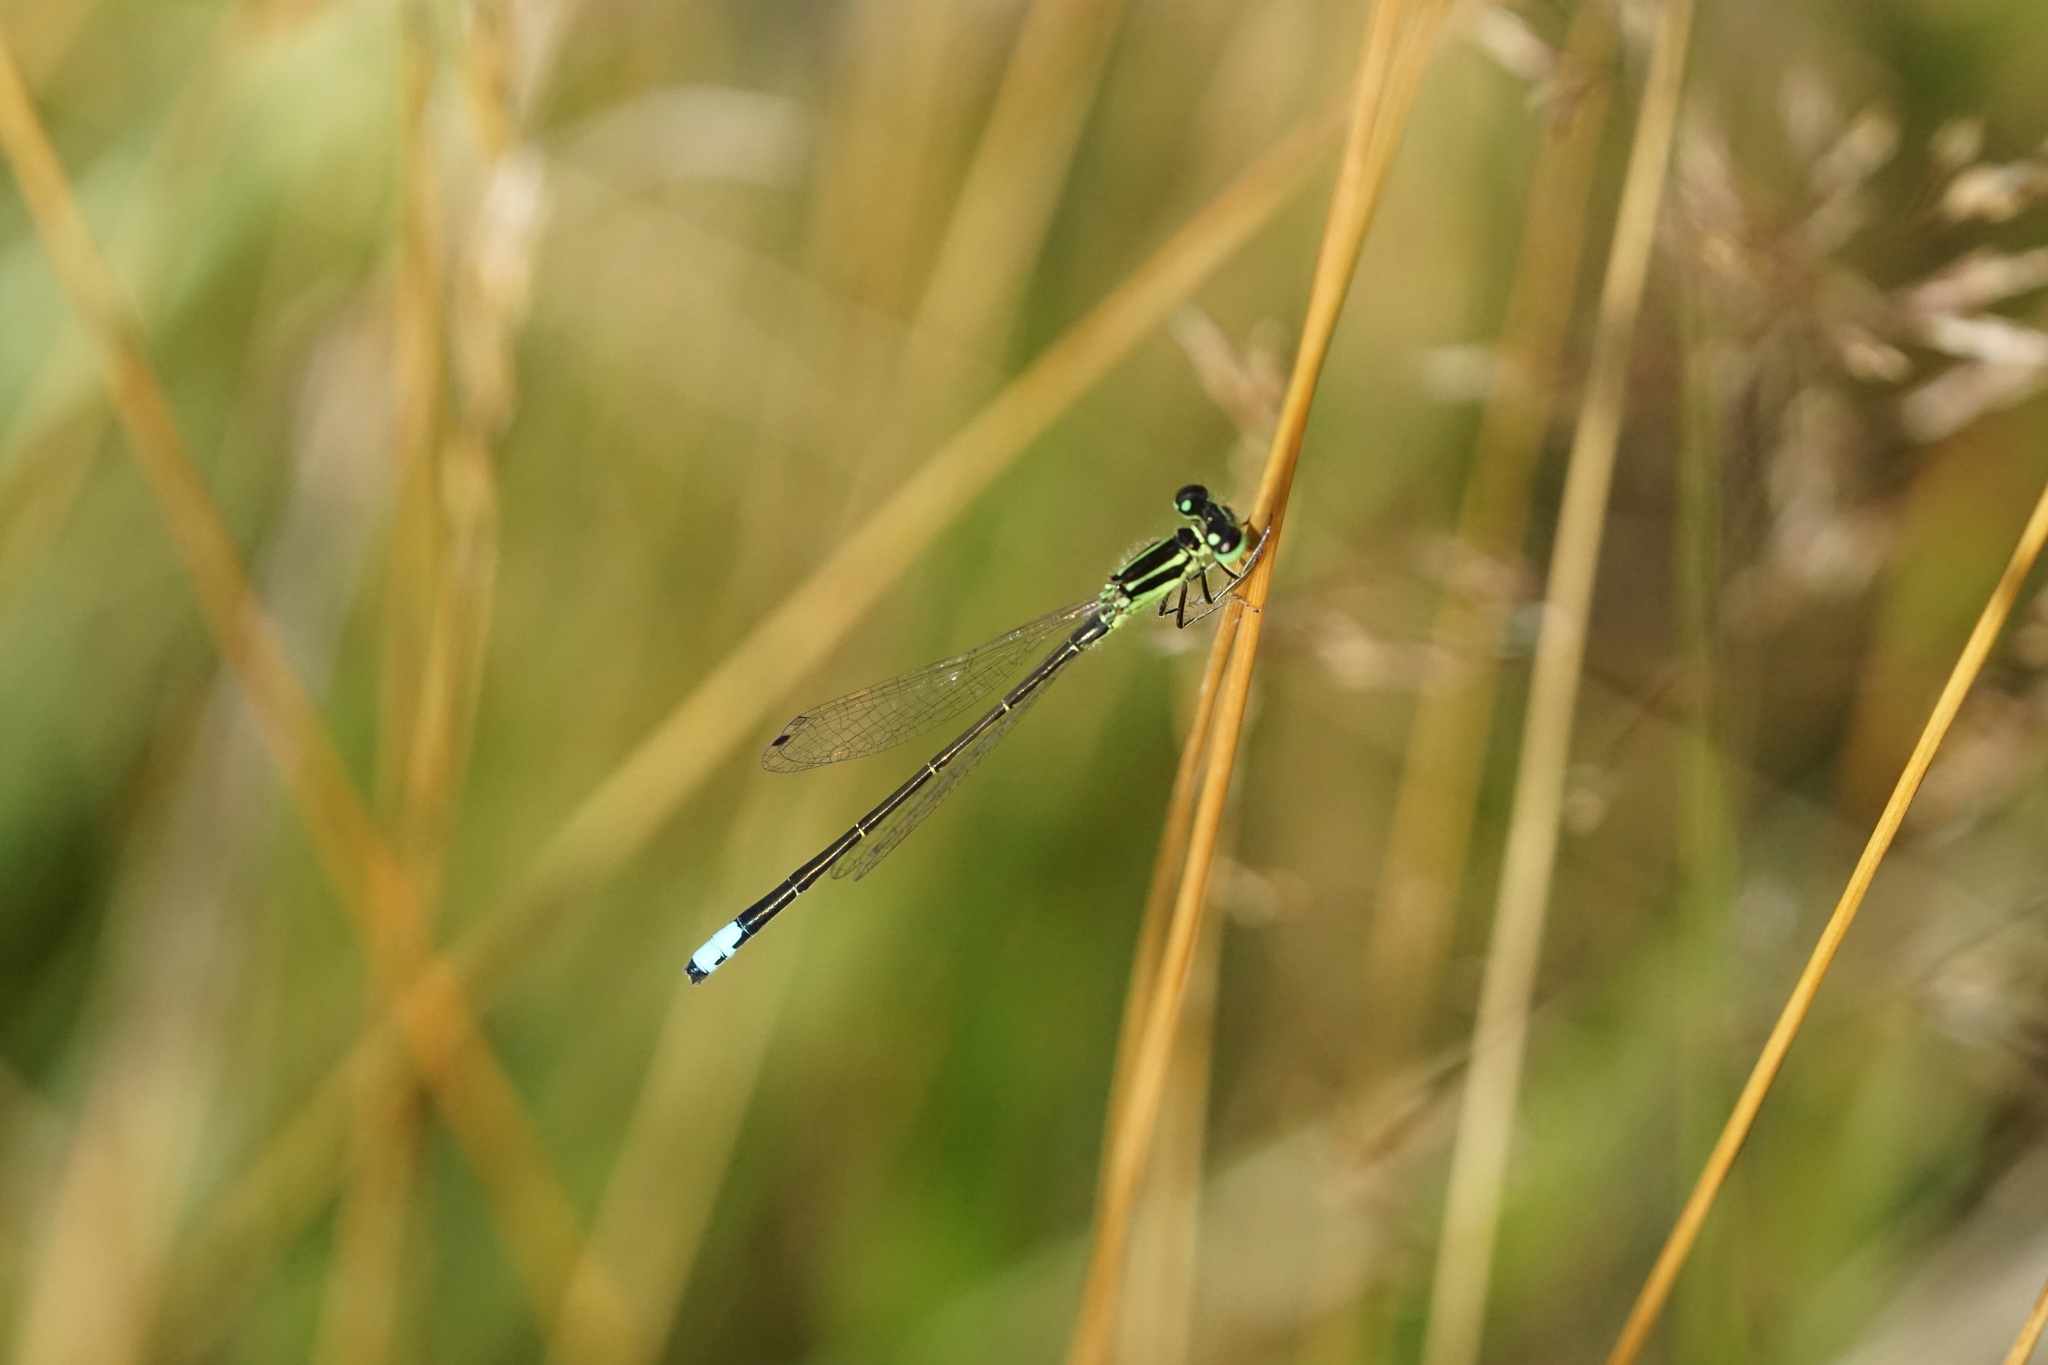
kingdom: Animalia
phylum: Arthropoda
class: Insecta
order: Odonata
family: Coenagrionidae
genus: Ischnura
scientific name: Ischnura verticalis
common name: Eastern forktail
